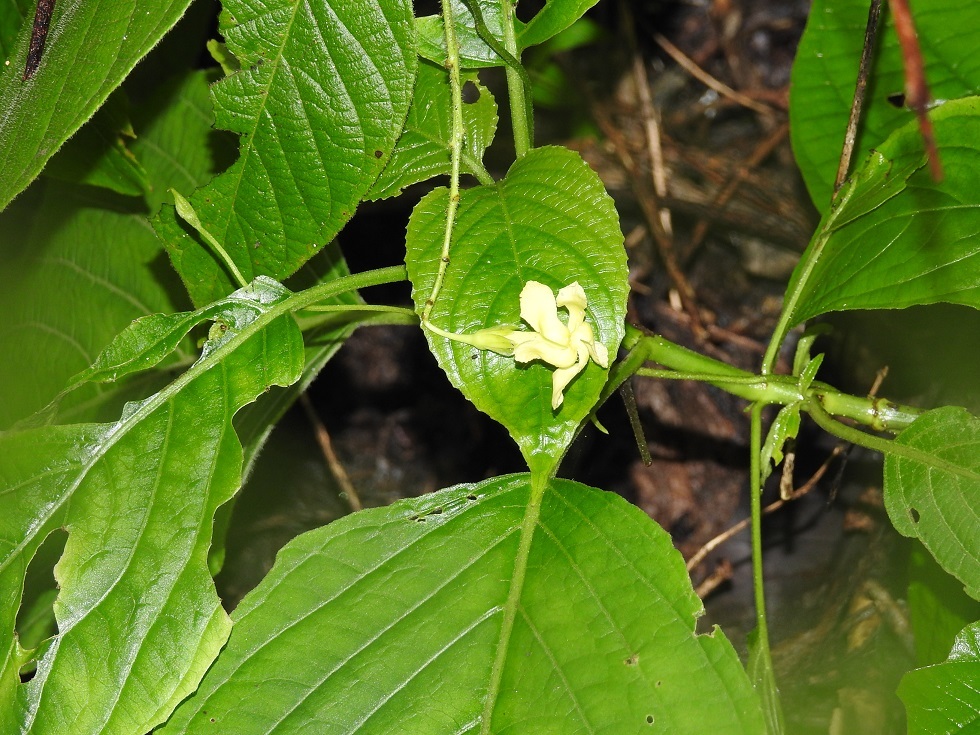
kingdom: Plantae
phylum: Tracheophyta
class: Magnoliopsida
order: Gentianales
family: Apocynaceae
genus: Mandevilla
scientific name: Mandevilla subsessilis
